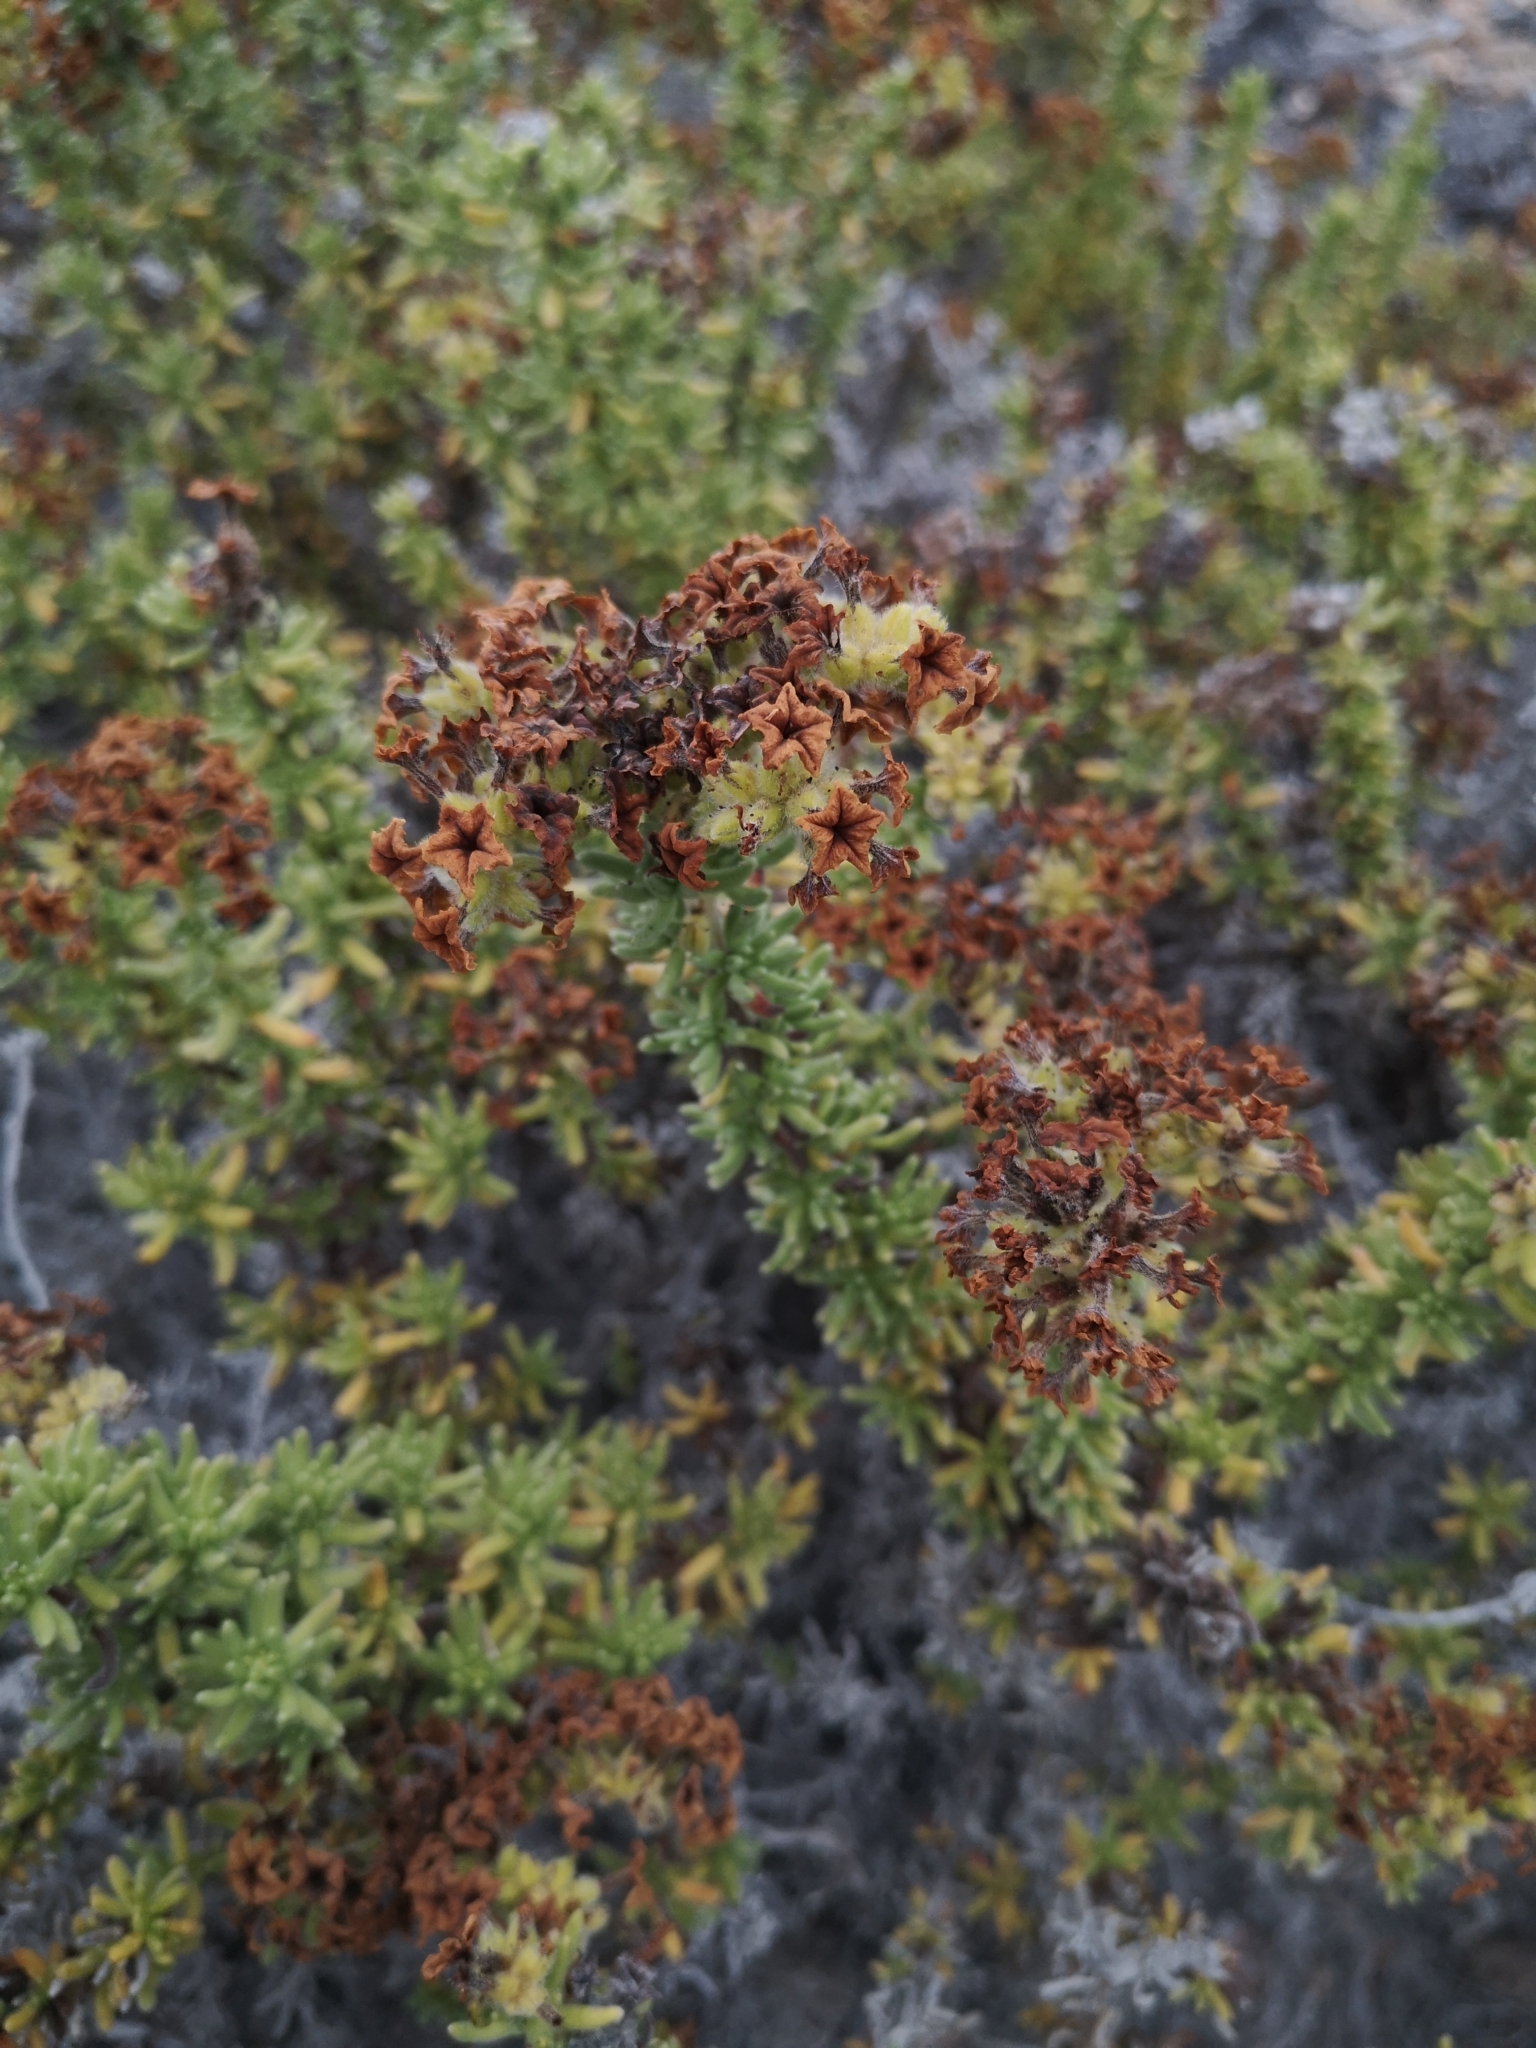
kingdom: Plantae
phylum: Tracheophyta
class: Magnoliopsida
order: Boraginales
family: Heliotropiaceae
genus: Heliotropium
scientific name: Heliotropium pycnophyllum
